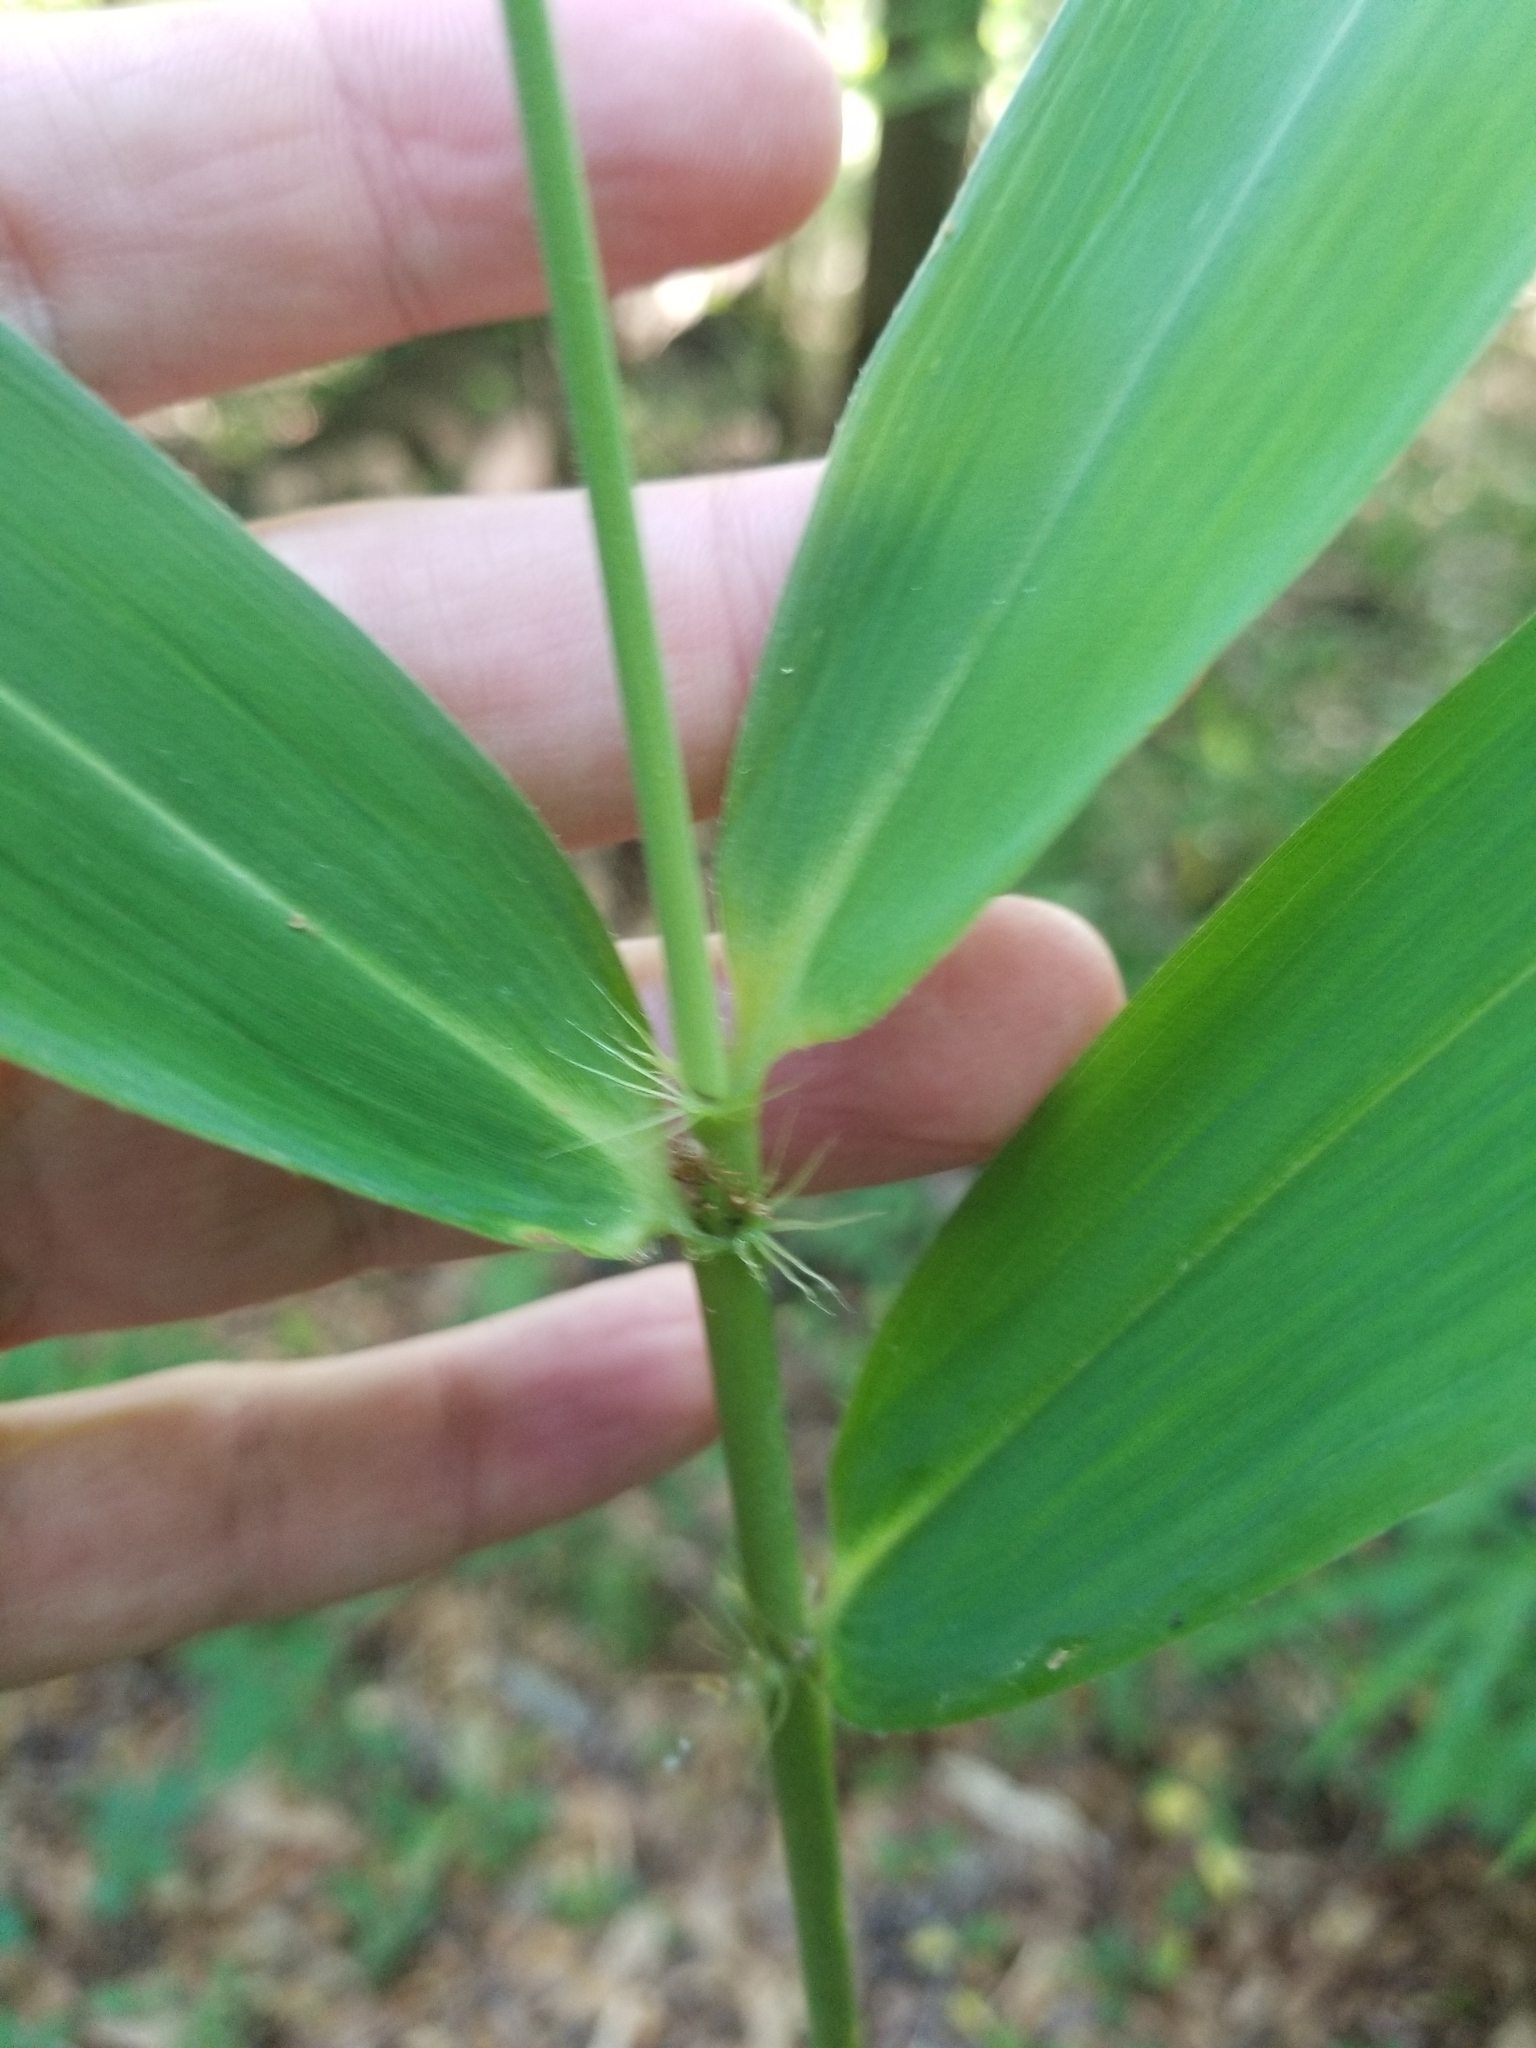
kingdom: Plantae
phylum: Tracheophyta
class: Liliopsida
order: Poales
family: Poaceae
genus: Arundinaria
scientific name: Arundinaria tecta
